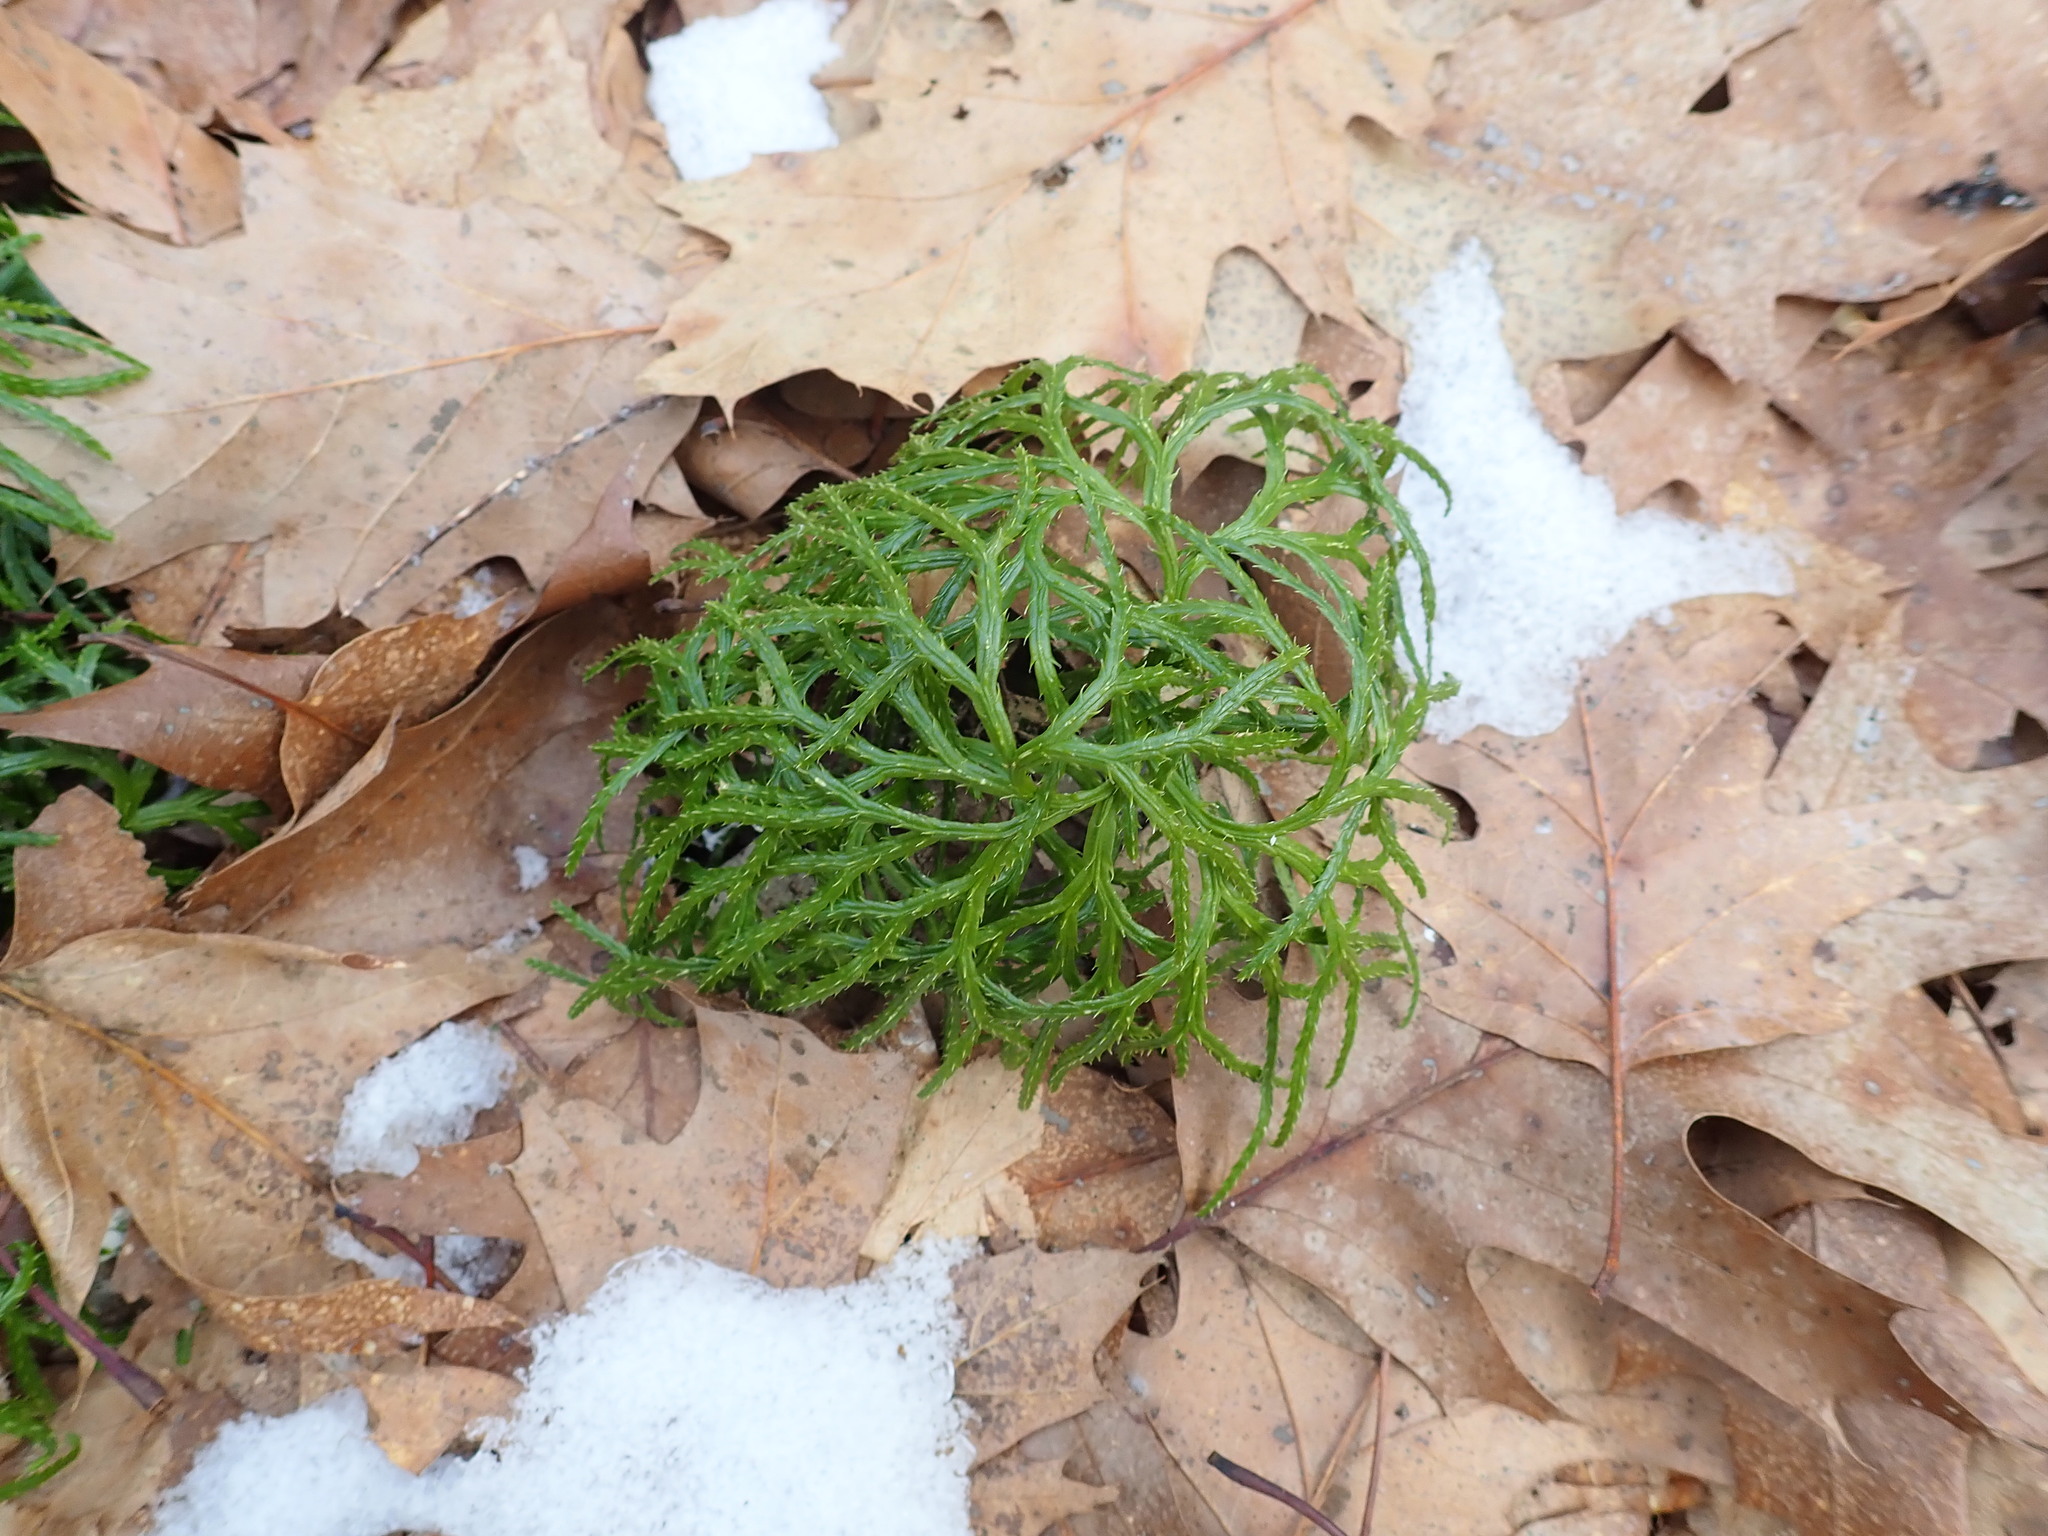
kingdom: Plantae
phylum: Tracheophyta
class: Lycopodiopsida
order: Lycopodiales
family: Lycopodiaceae
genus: Diphasiastrum
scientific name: Diphasiastrum digitatum
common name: Southern running-pine
